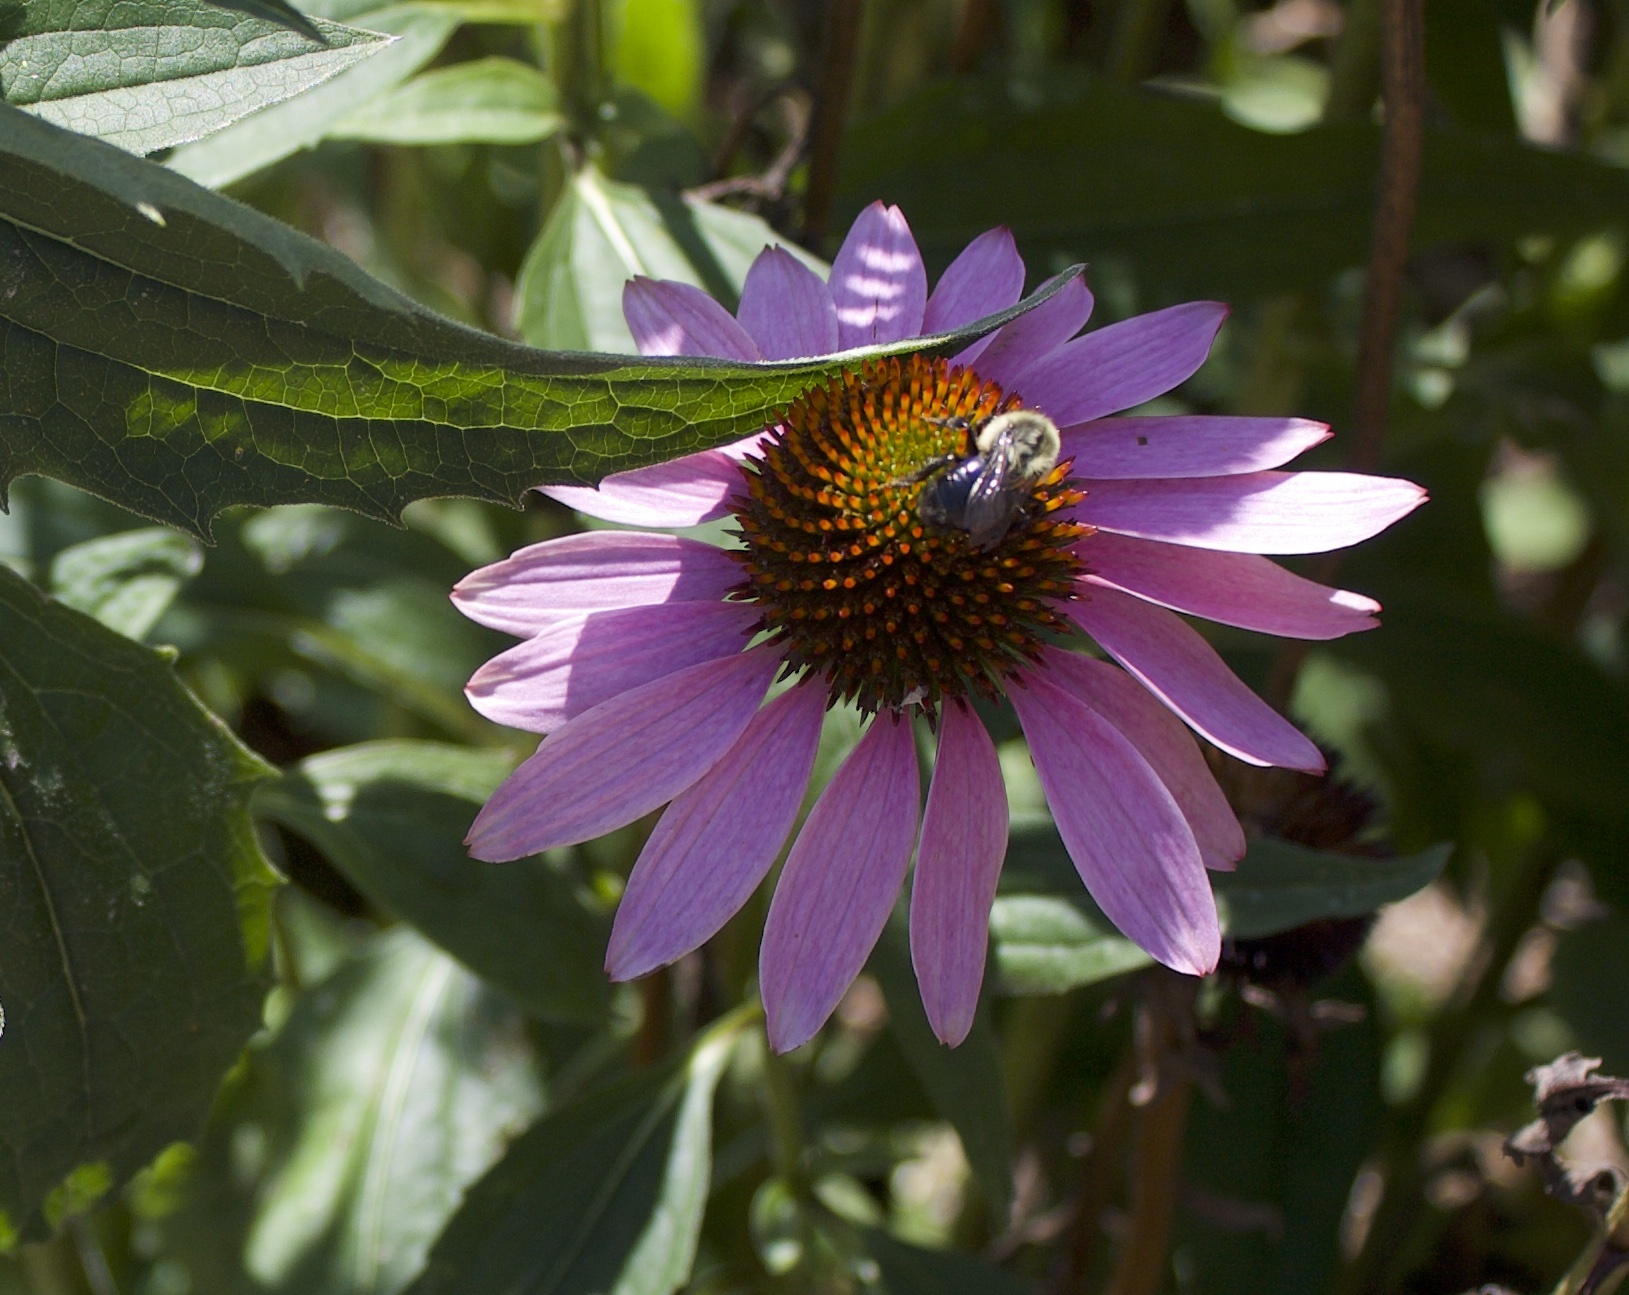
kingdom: Animalia
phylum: Arthropoda
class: Insecta
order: Hymenoptera
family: Apidae
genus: Bombus
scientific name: Bombus impatiens
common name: Common eastern bumble bee
